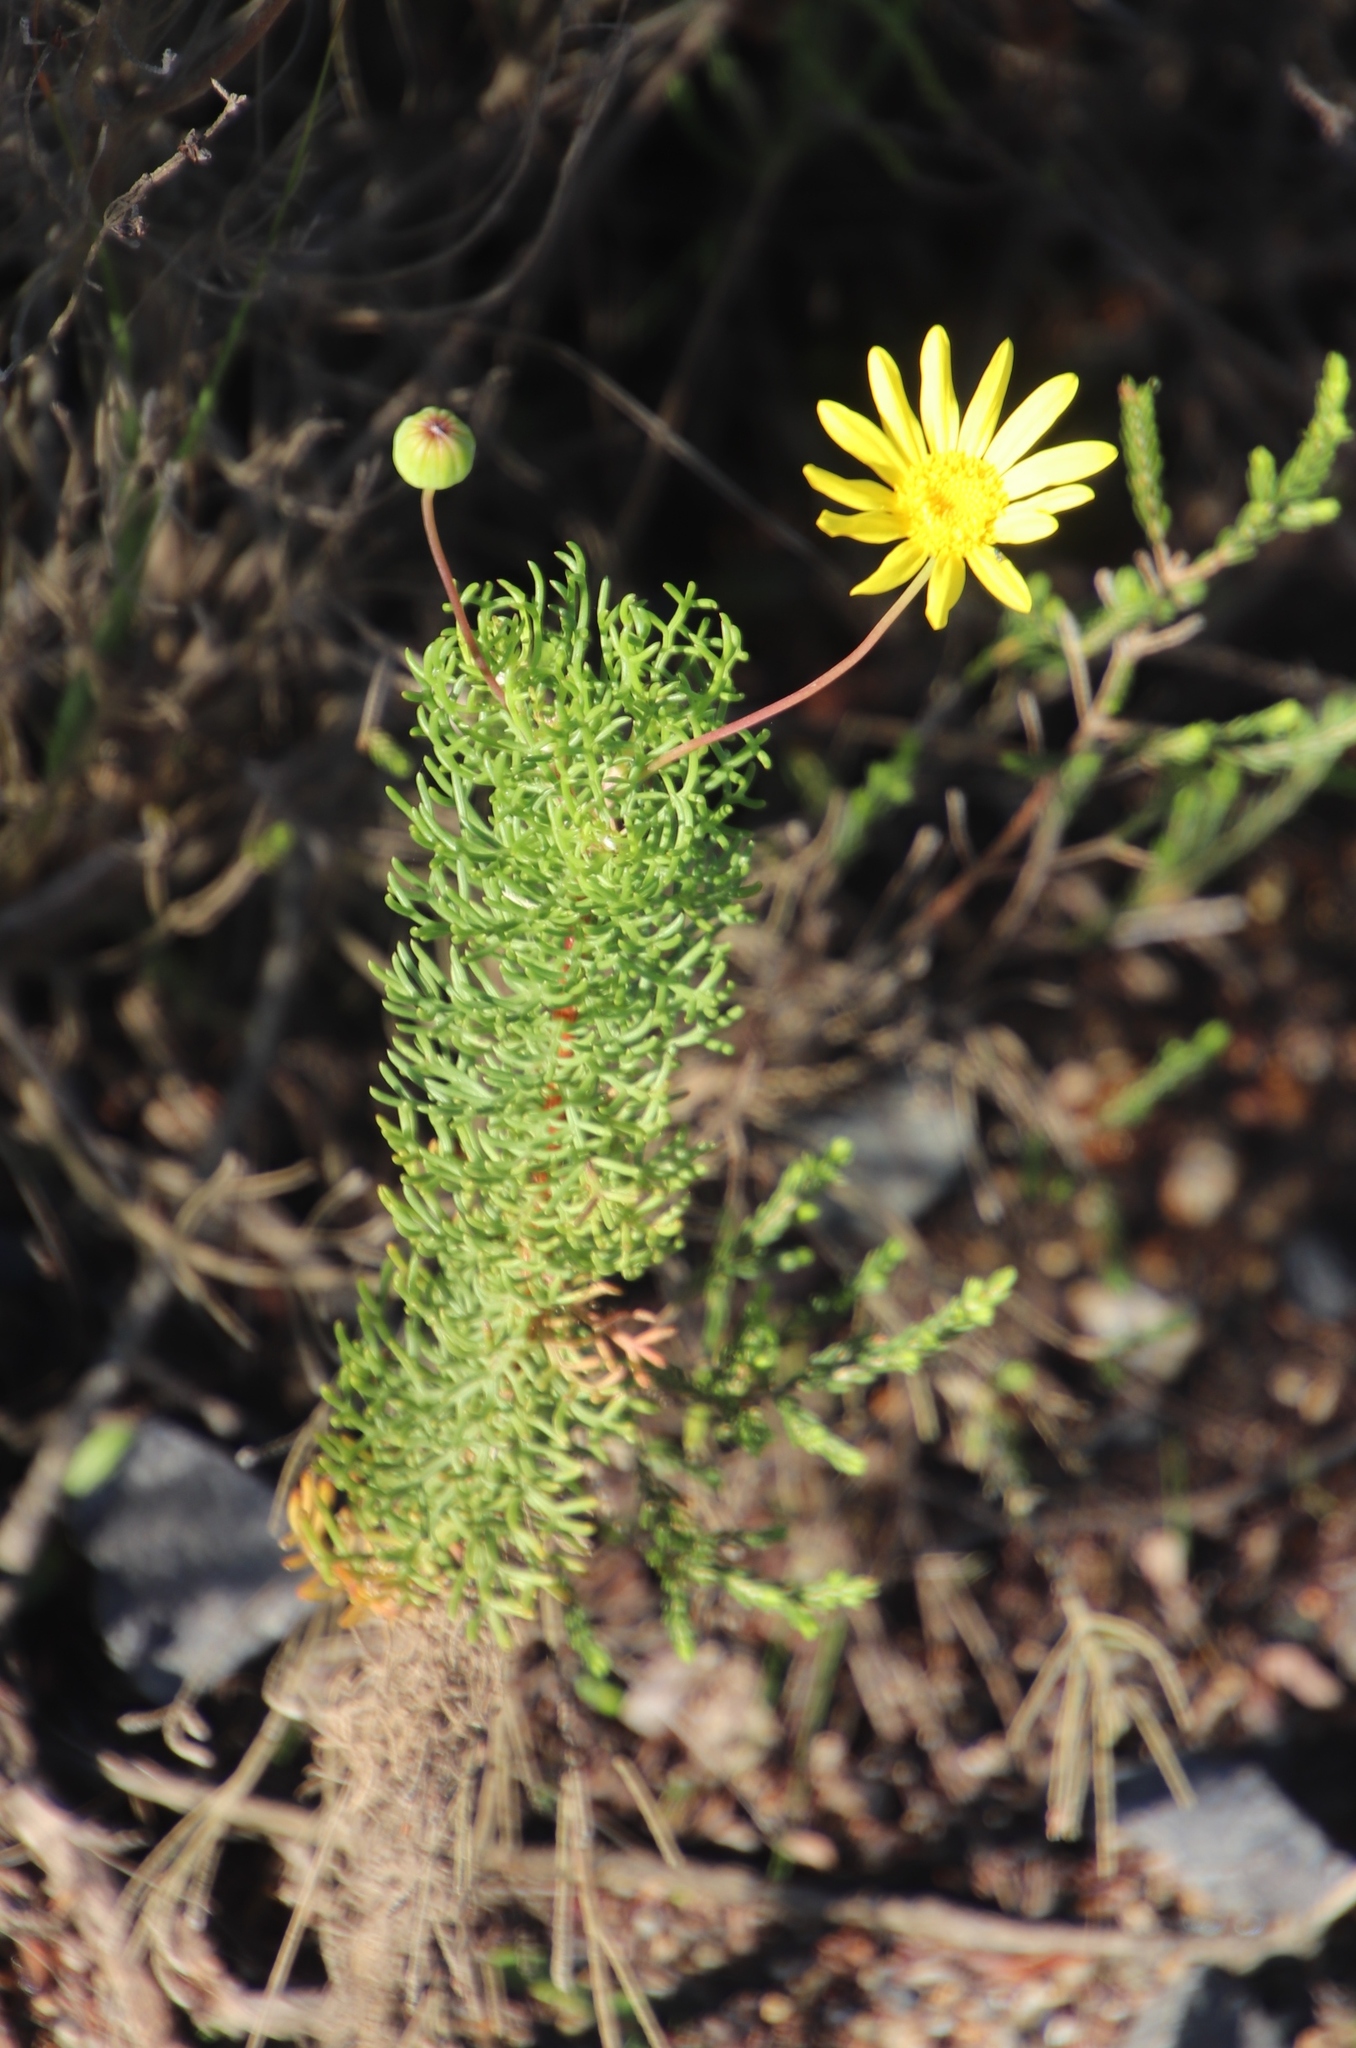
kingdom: Plantae
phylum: Tracheophyta
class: Magnoliopsida
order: Asterales
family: Asteraceae
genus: Euryops
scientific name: Euryops abrotanifolius
